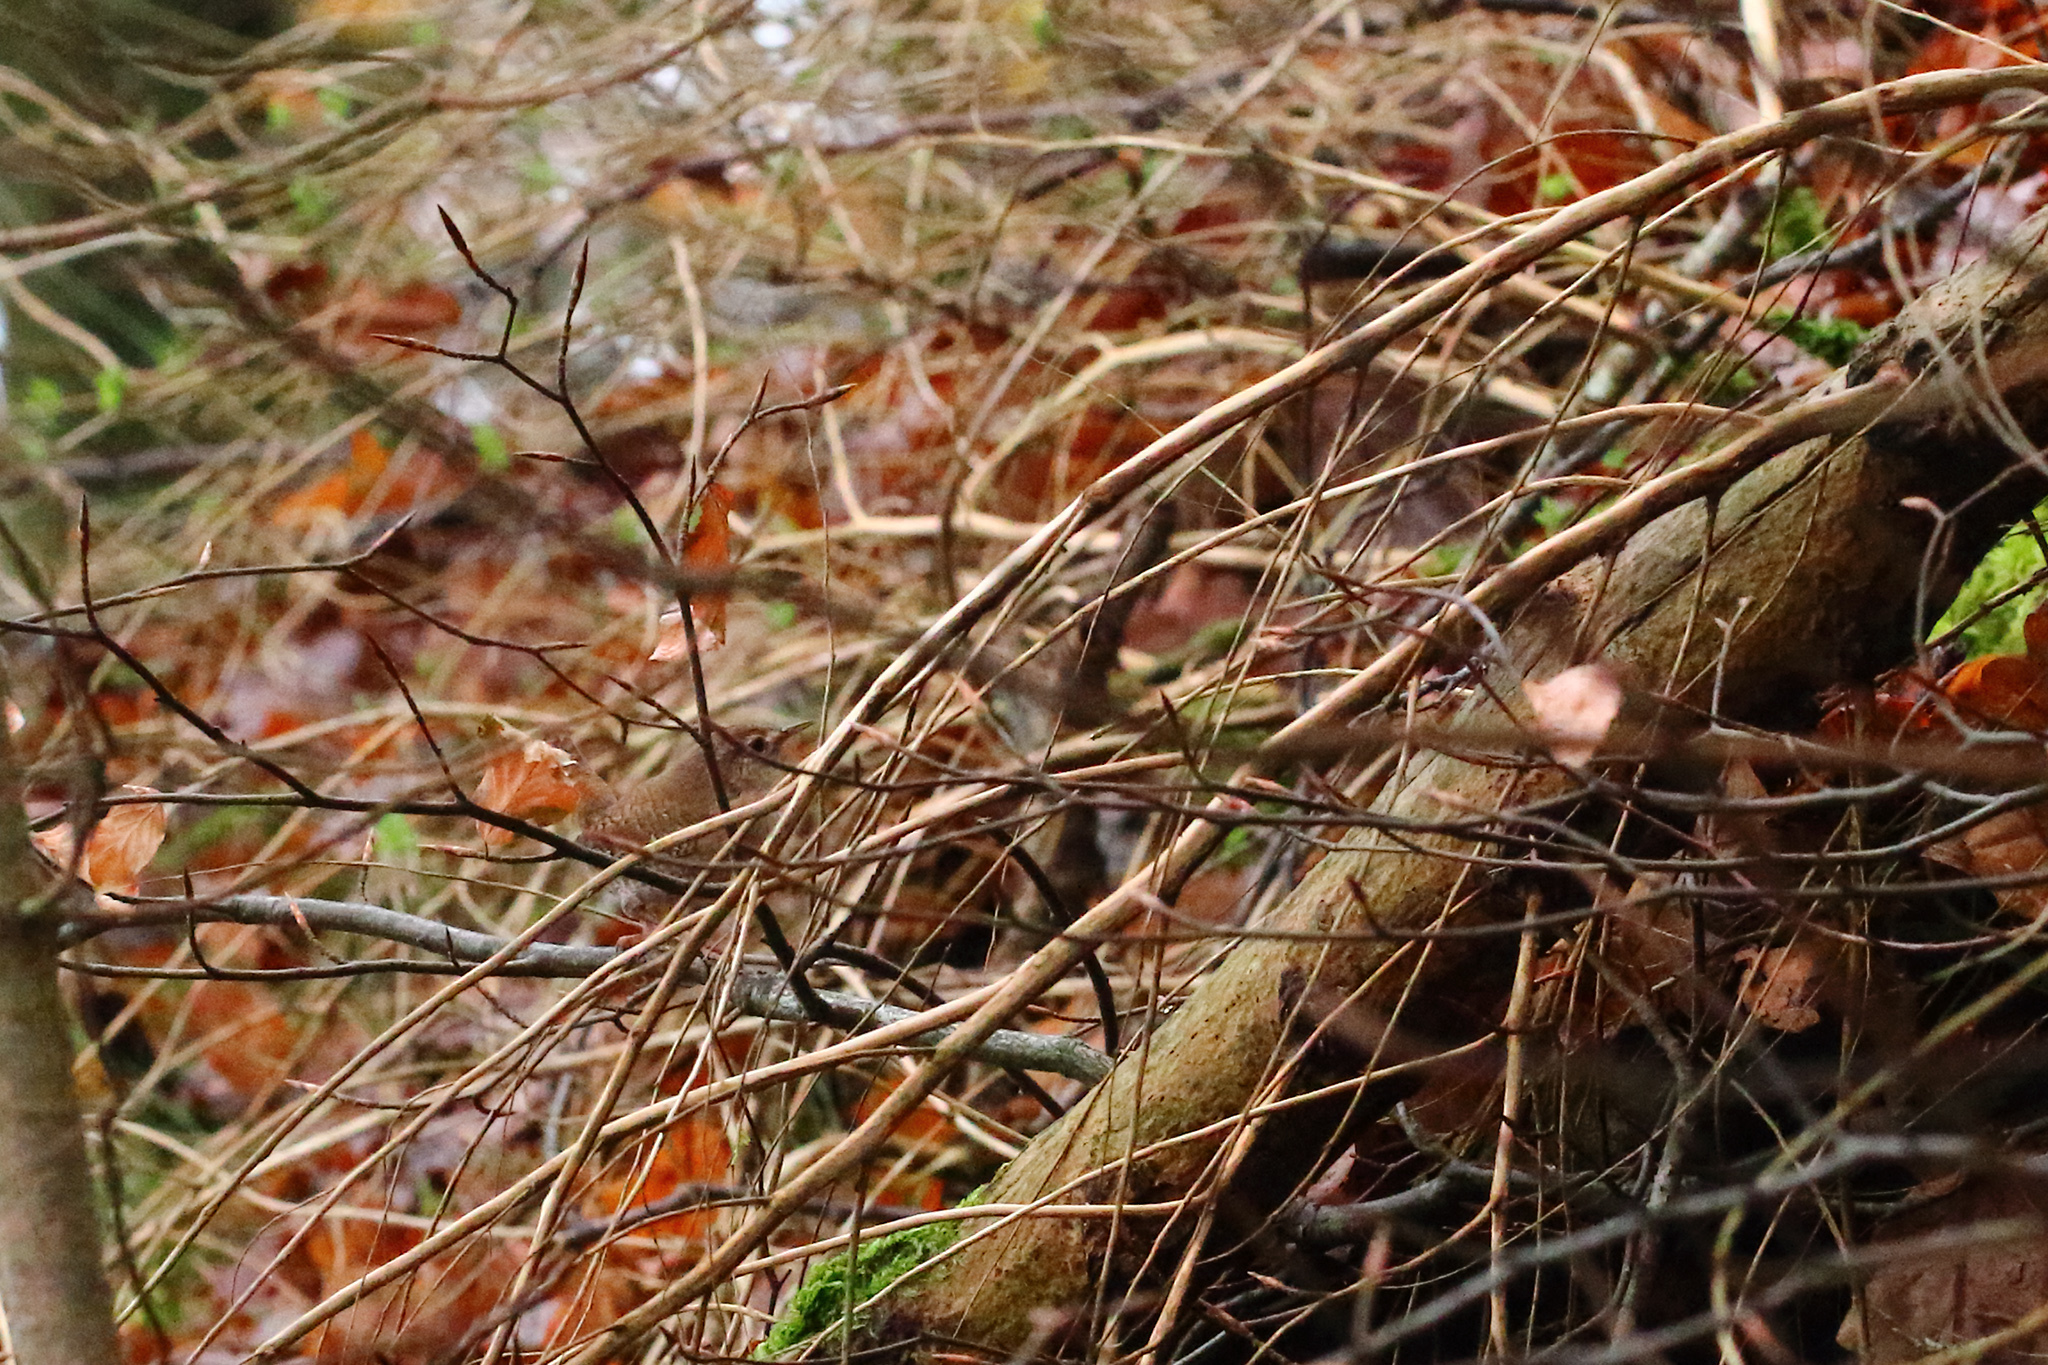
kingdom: Animalia
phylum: Chordata
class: Aves
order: Passeriformes
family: Troglodytidae
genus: Troglodytes
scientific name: Troglodytes troglodytes
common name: Eurasian wren
